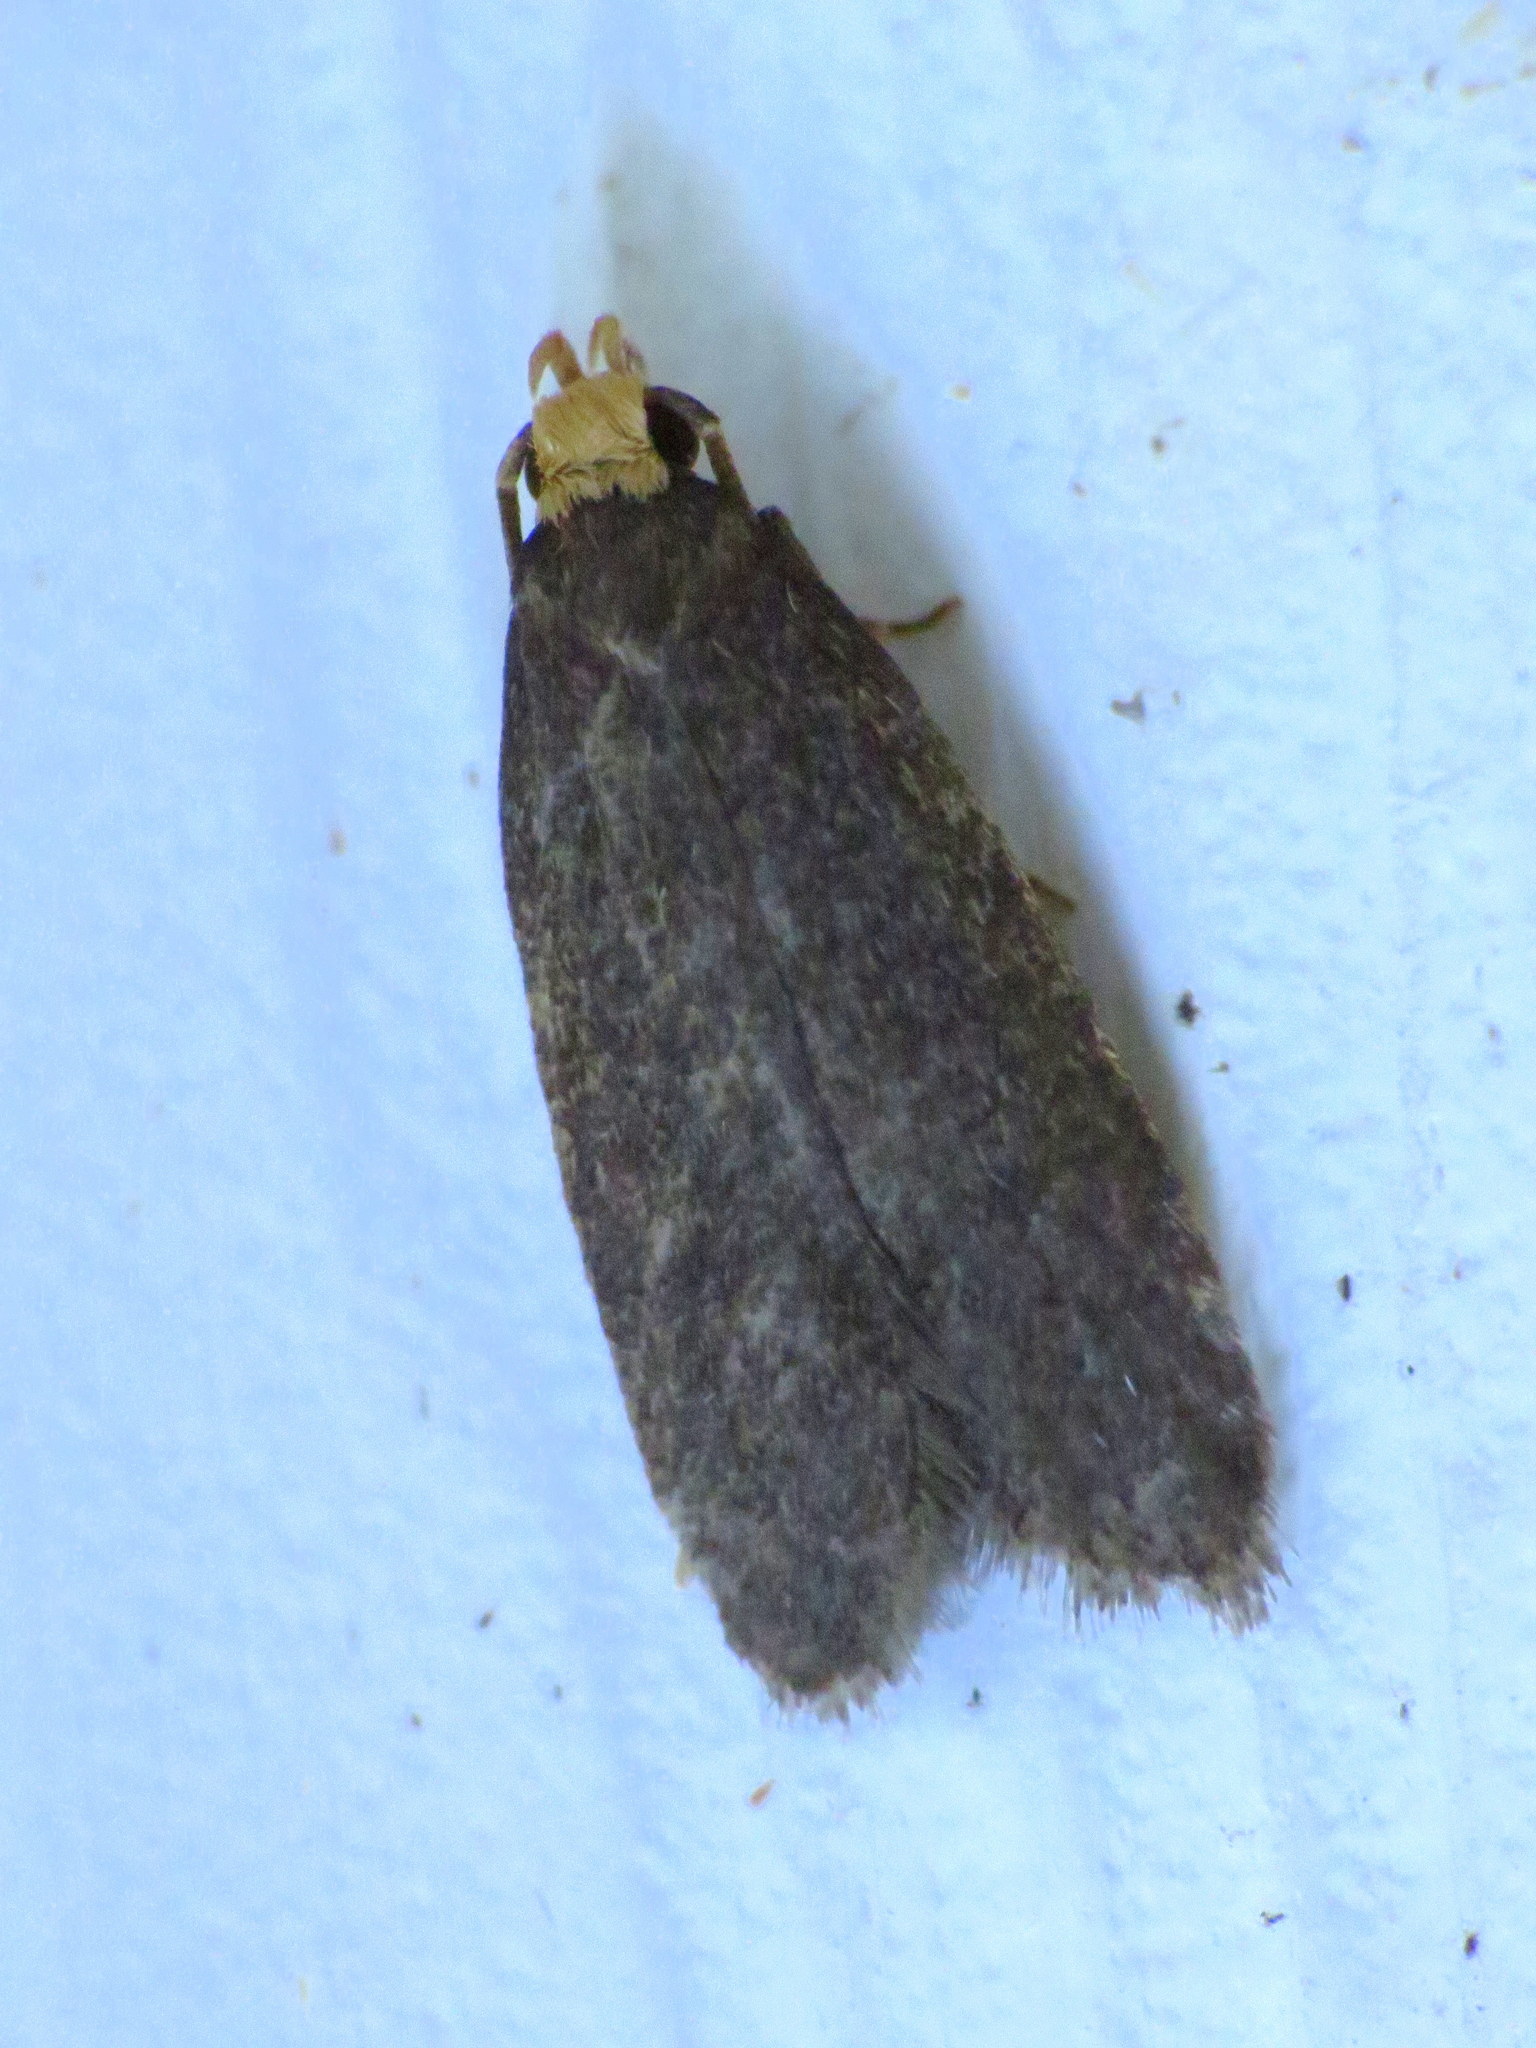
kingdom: Animalia
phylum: Arthropoda
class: Insecta
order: Lepidoptera
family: Autostichidae
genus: Glyphidocera
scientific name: Glyphidocera lithodoxa
